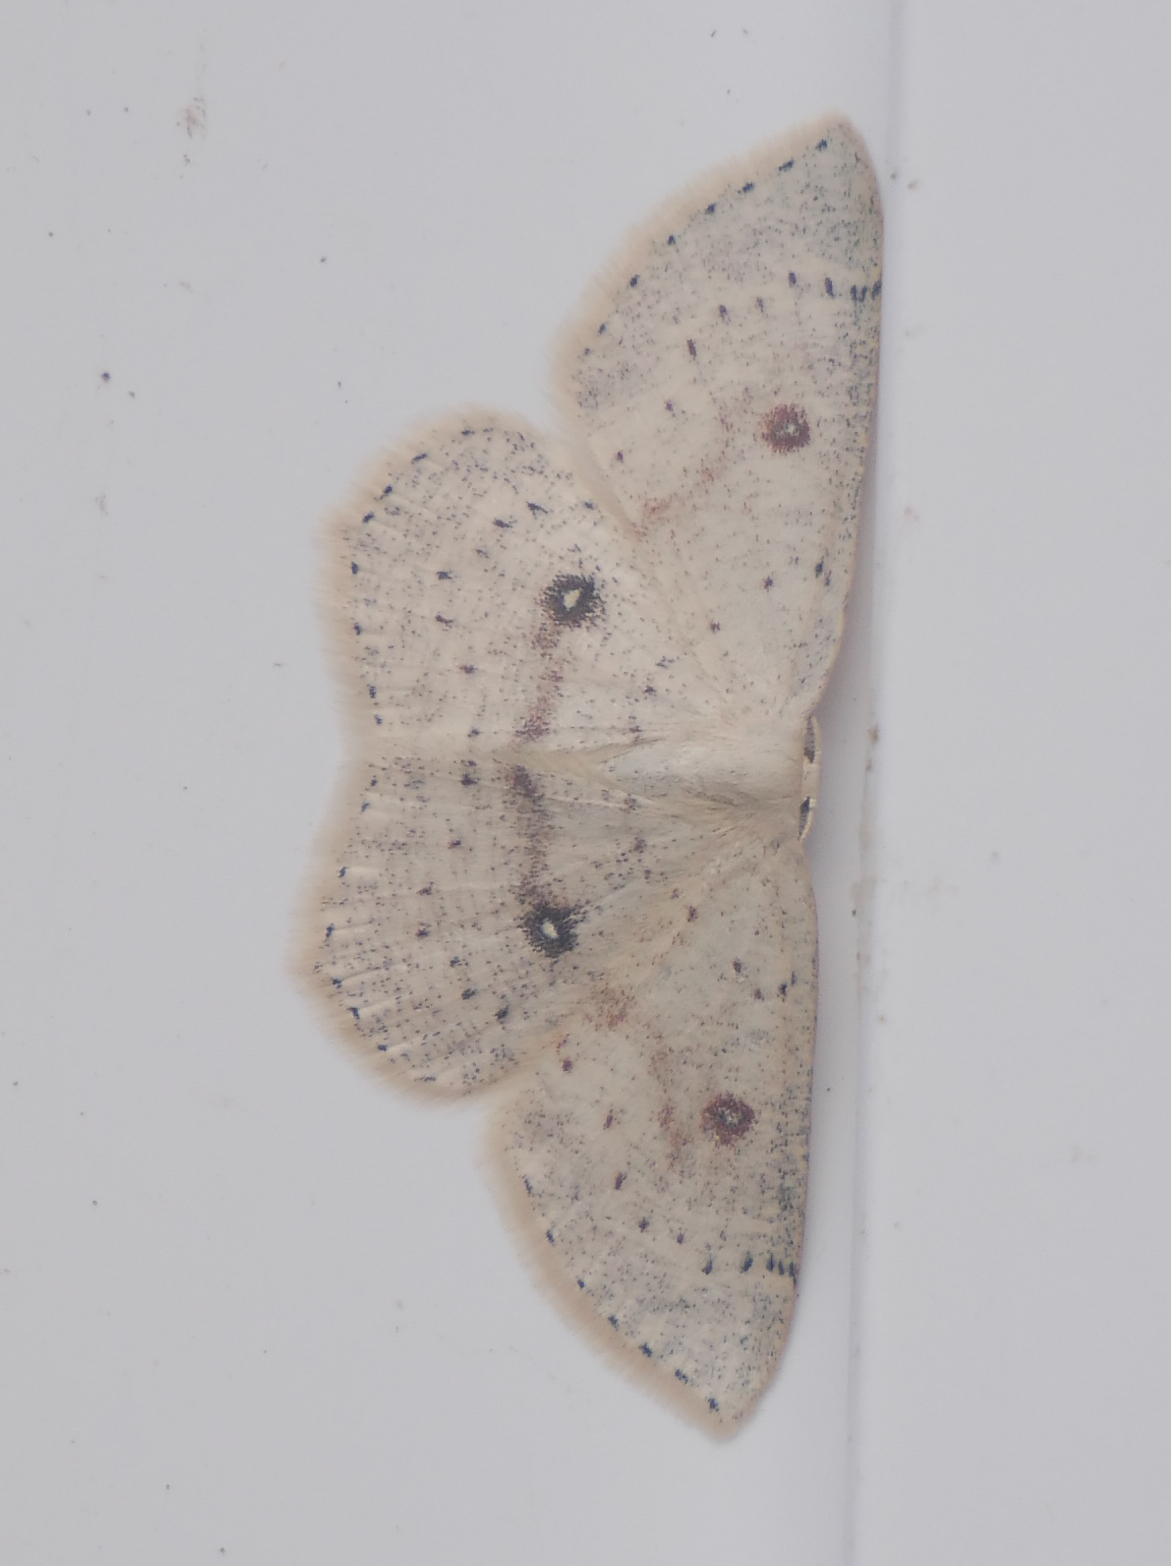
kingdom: Animalia
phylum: Arthropoda
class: Insecta
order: Lepidoptera
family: Geometridae
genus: Cyclophora
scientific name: Cyclophora albipunctata
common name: Birch mocha
